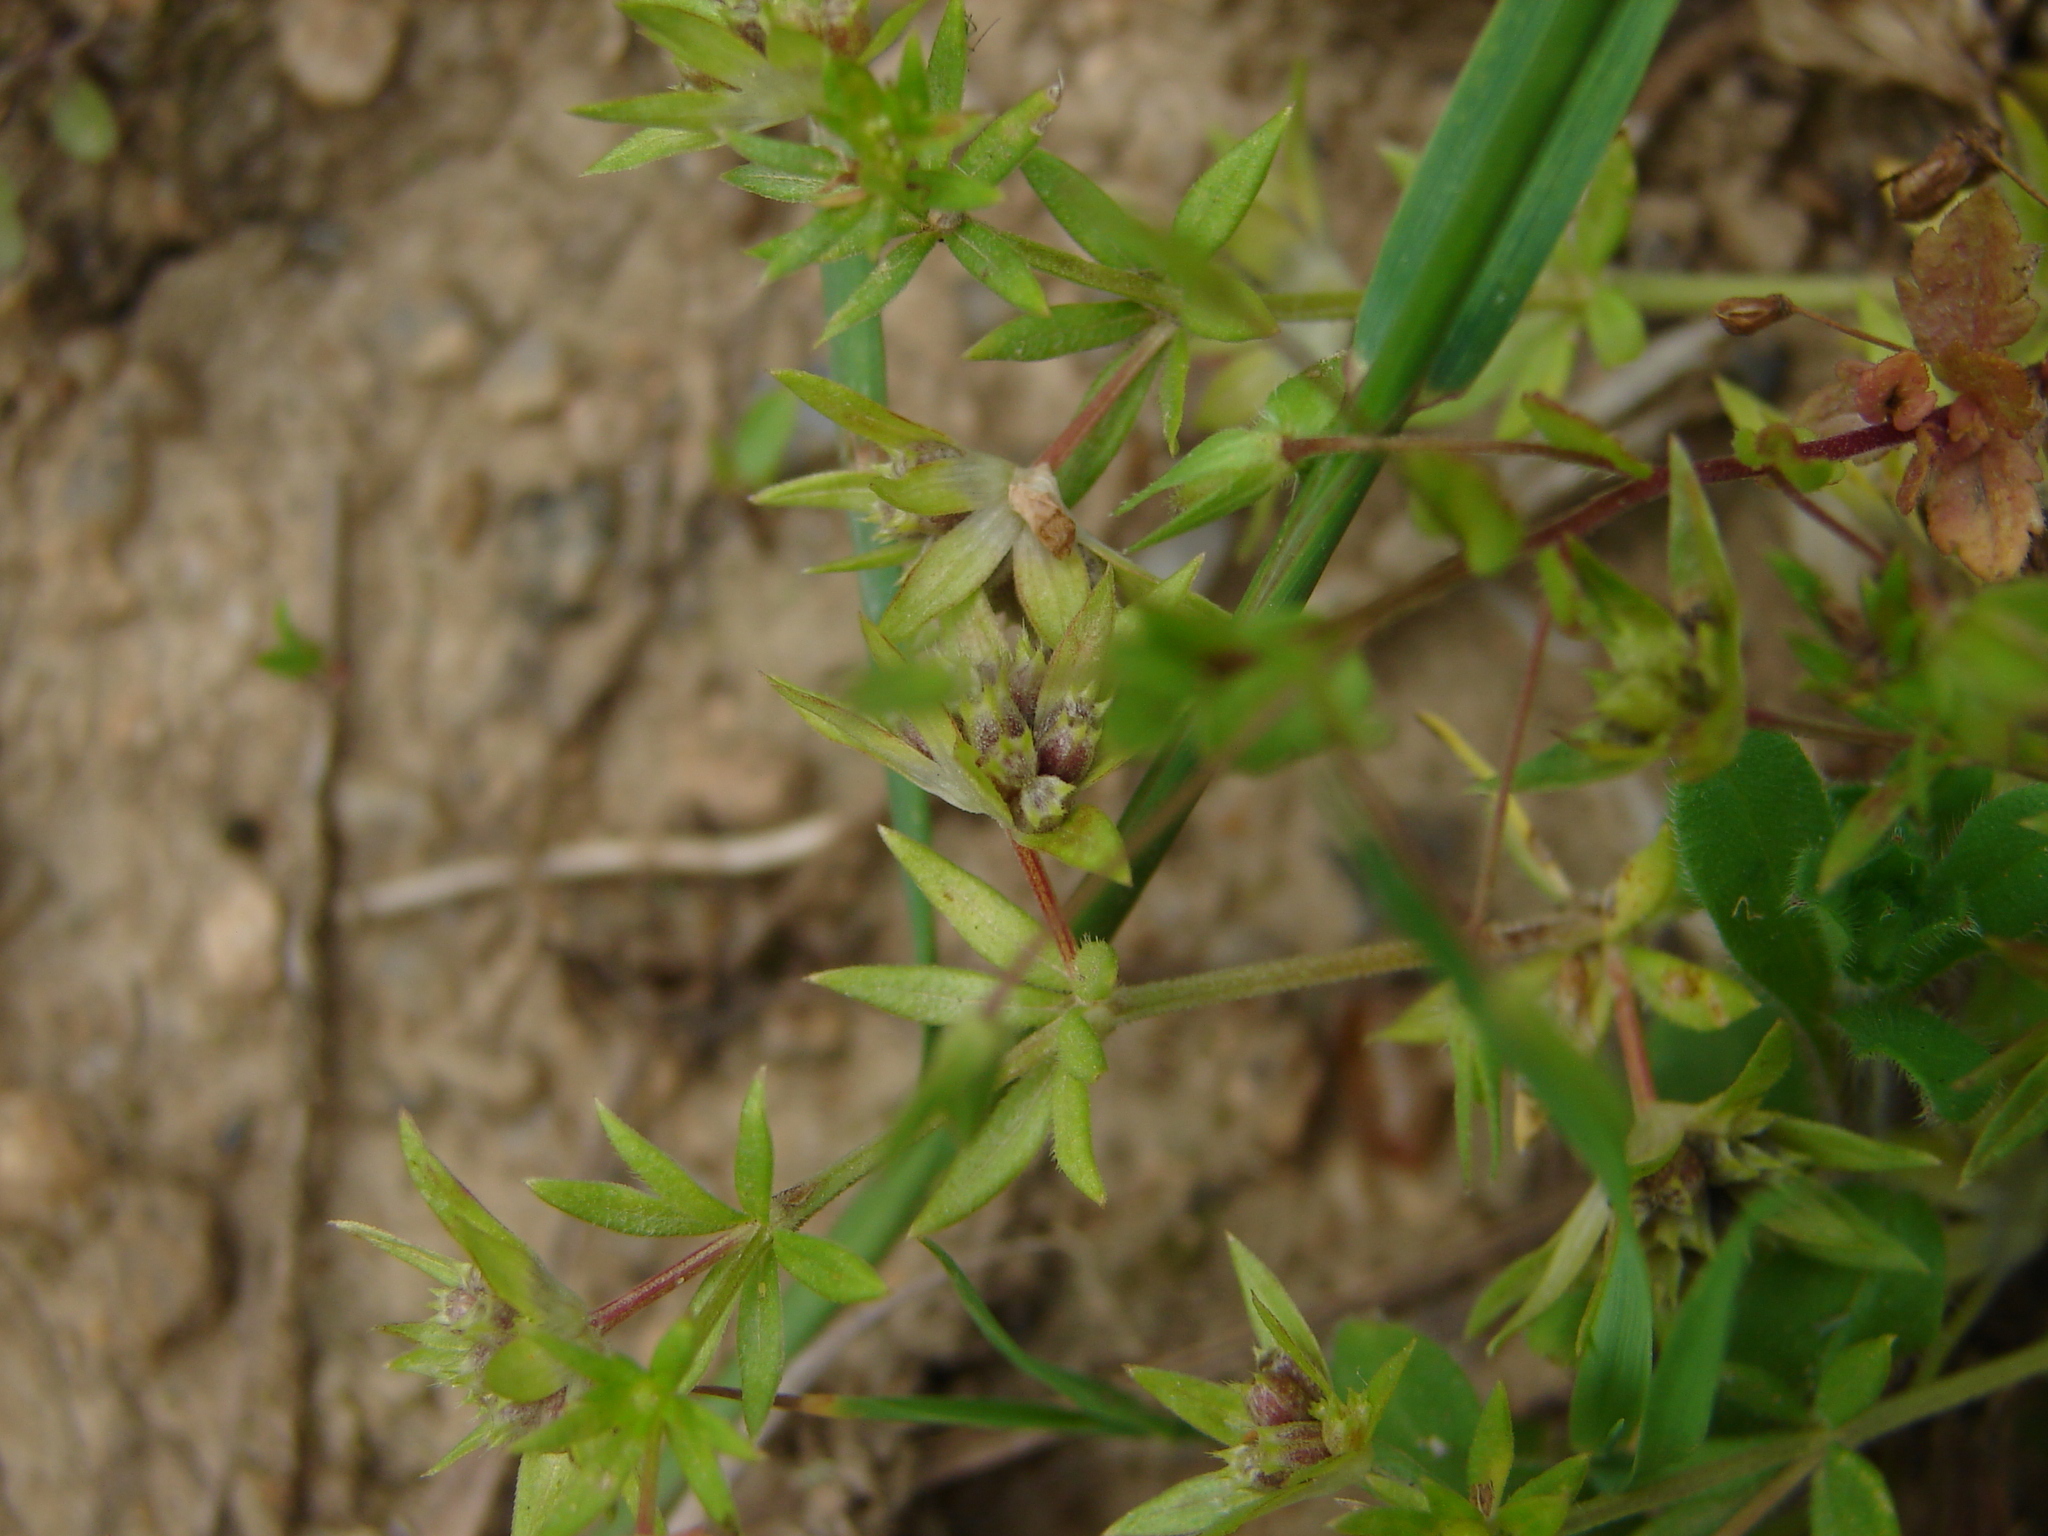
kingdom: Plantae
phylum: Tracheophyta
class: Magnoliopsida
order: Gentianales
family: Rubiaceae
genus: Sherardia
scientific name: Sherardia arvensis
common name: Field madder
